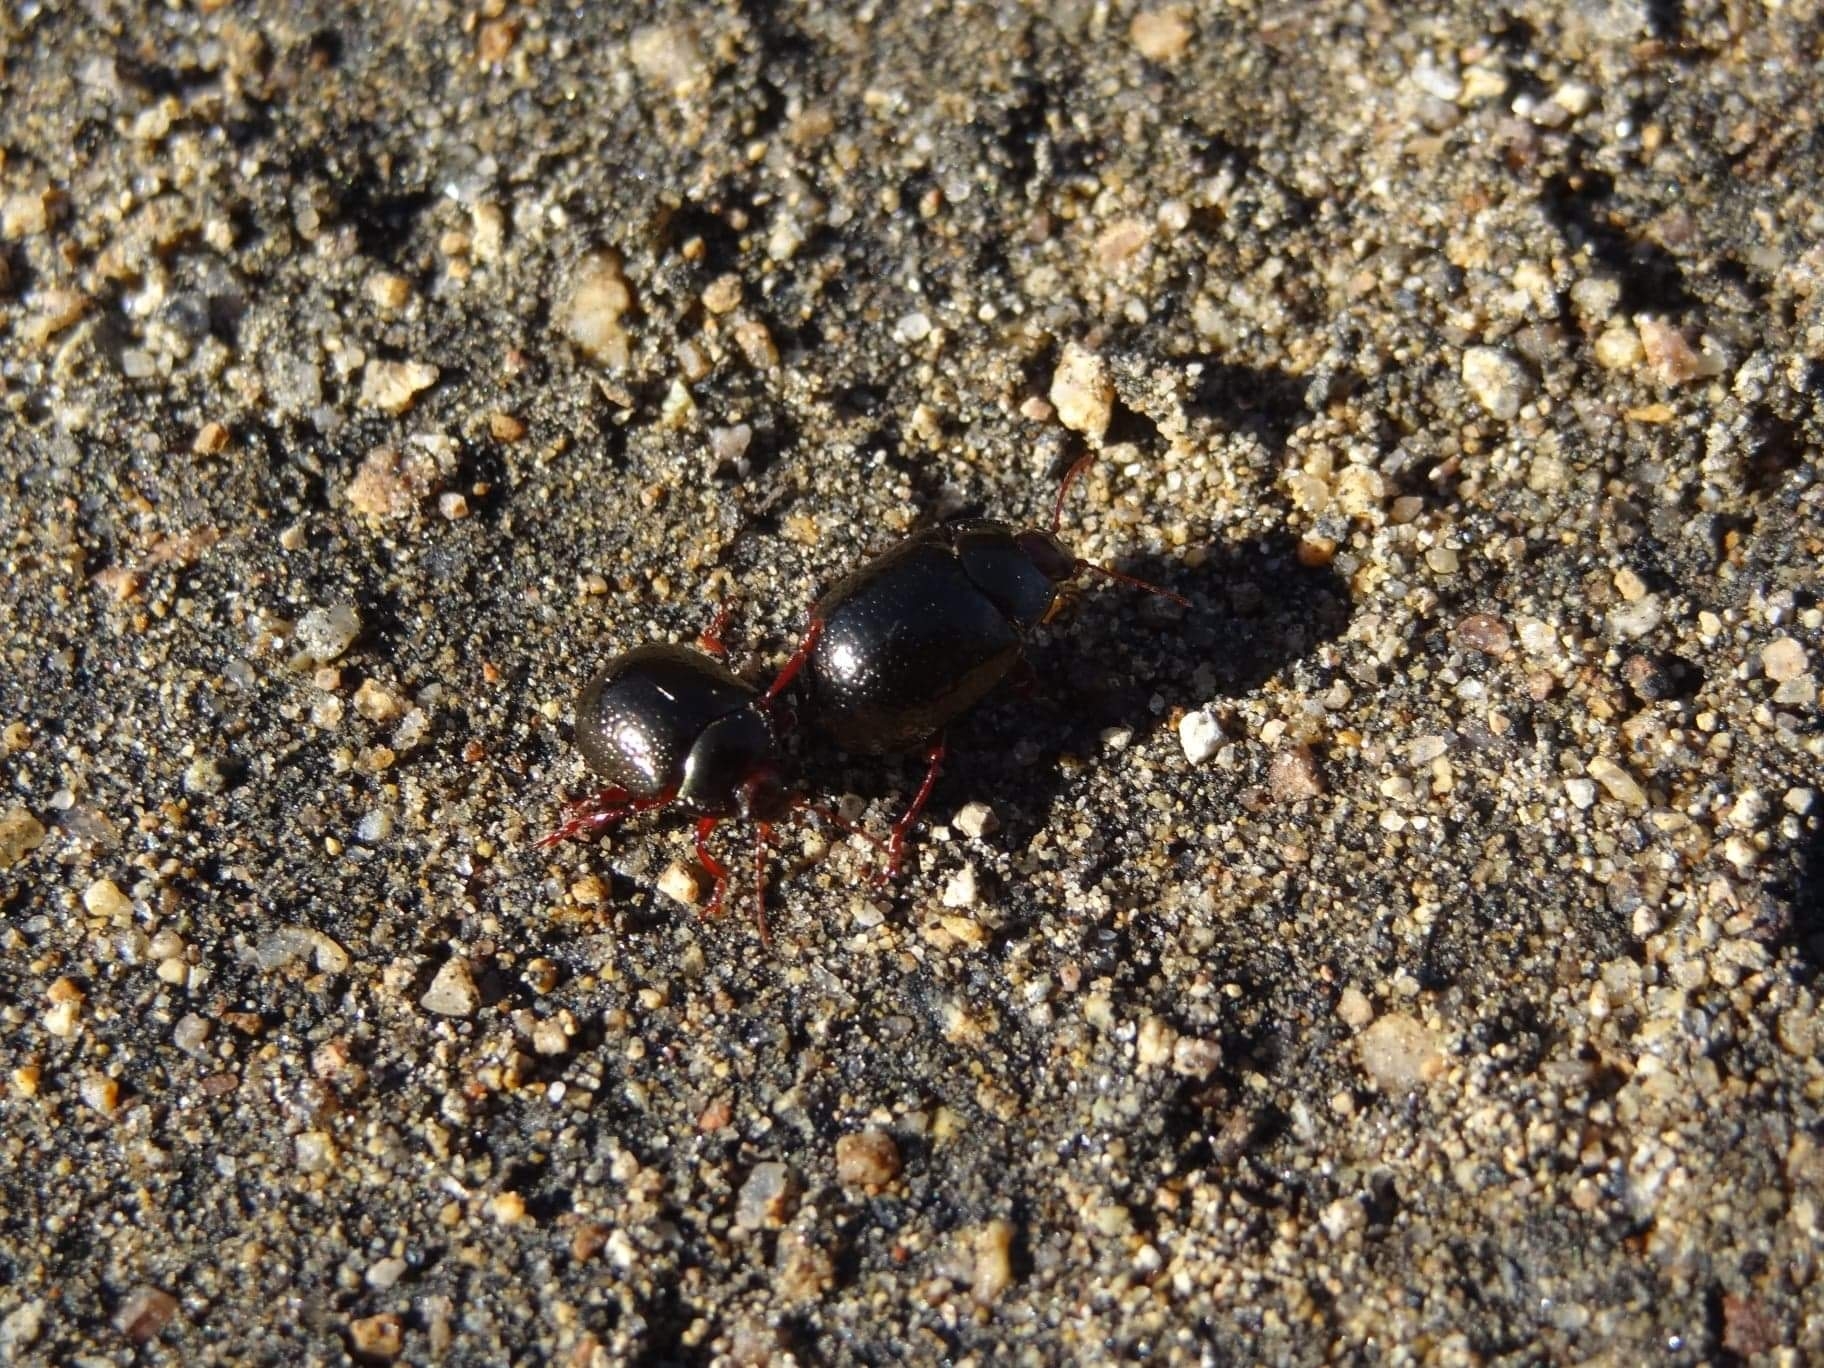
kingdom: Animalia
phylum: Arthropoda
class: Insecta
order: Coleoptera
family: Chrysomelidae
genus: Chrysolina
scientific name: Chrysolina bankii
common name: Leaf beetle
